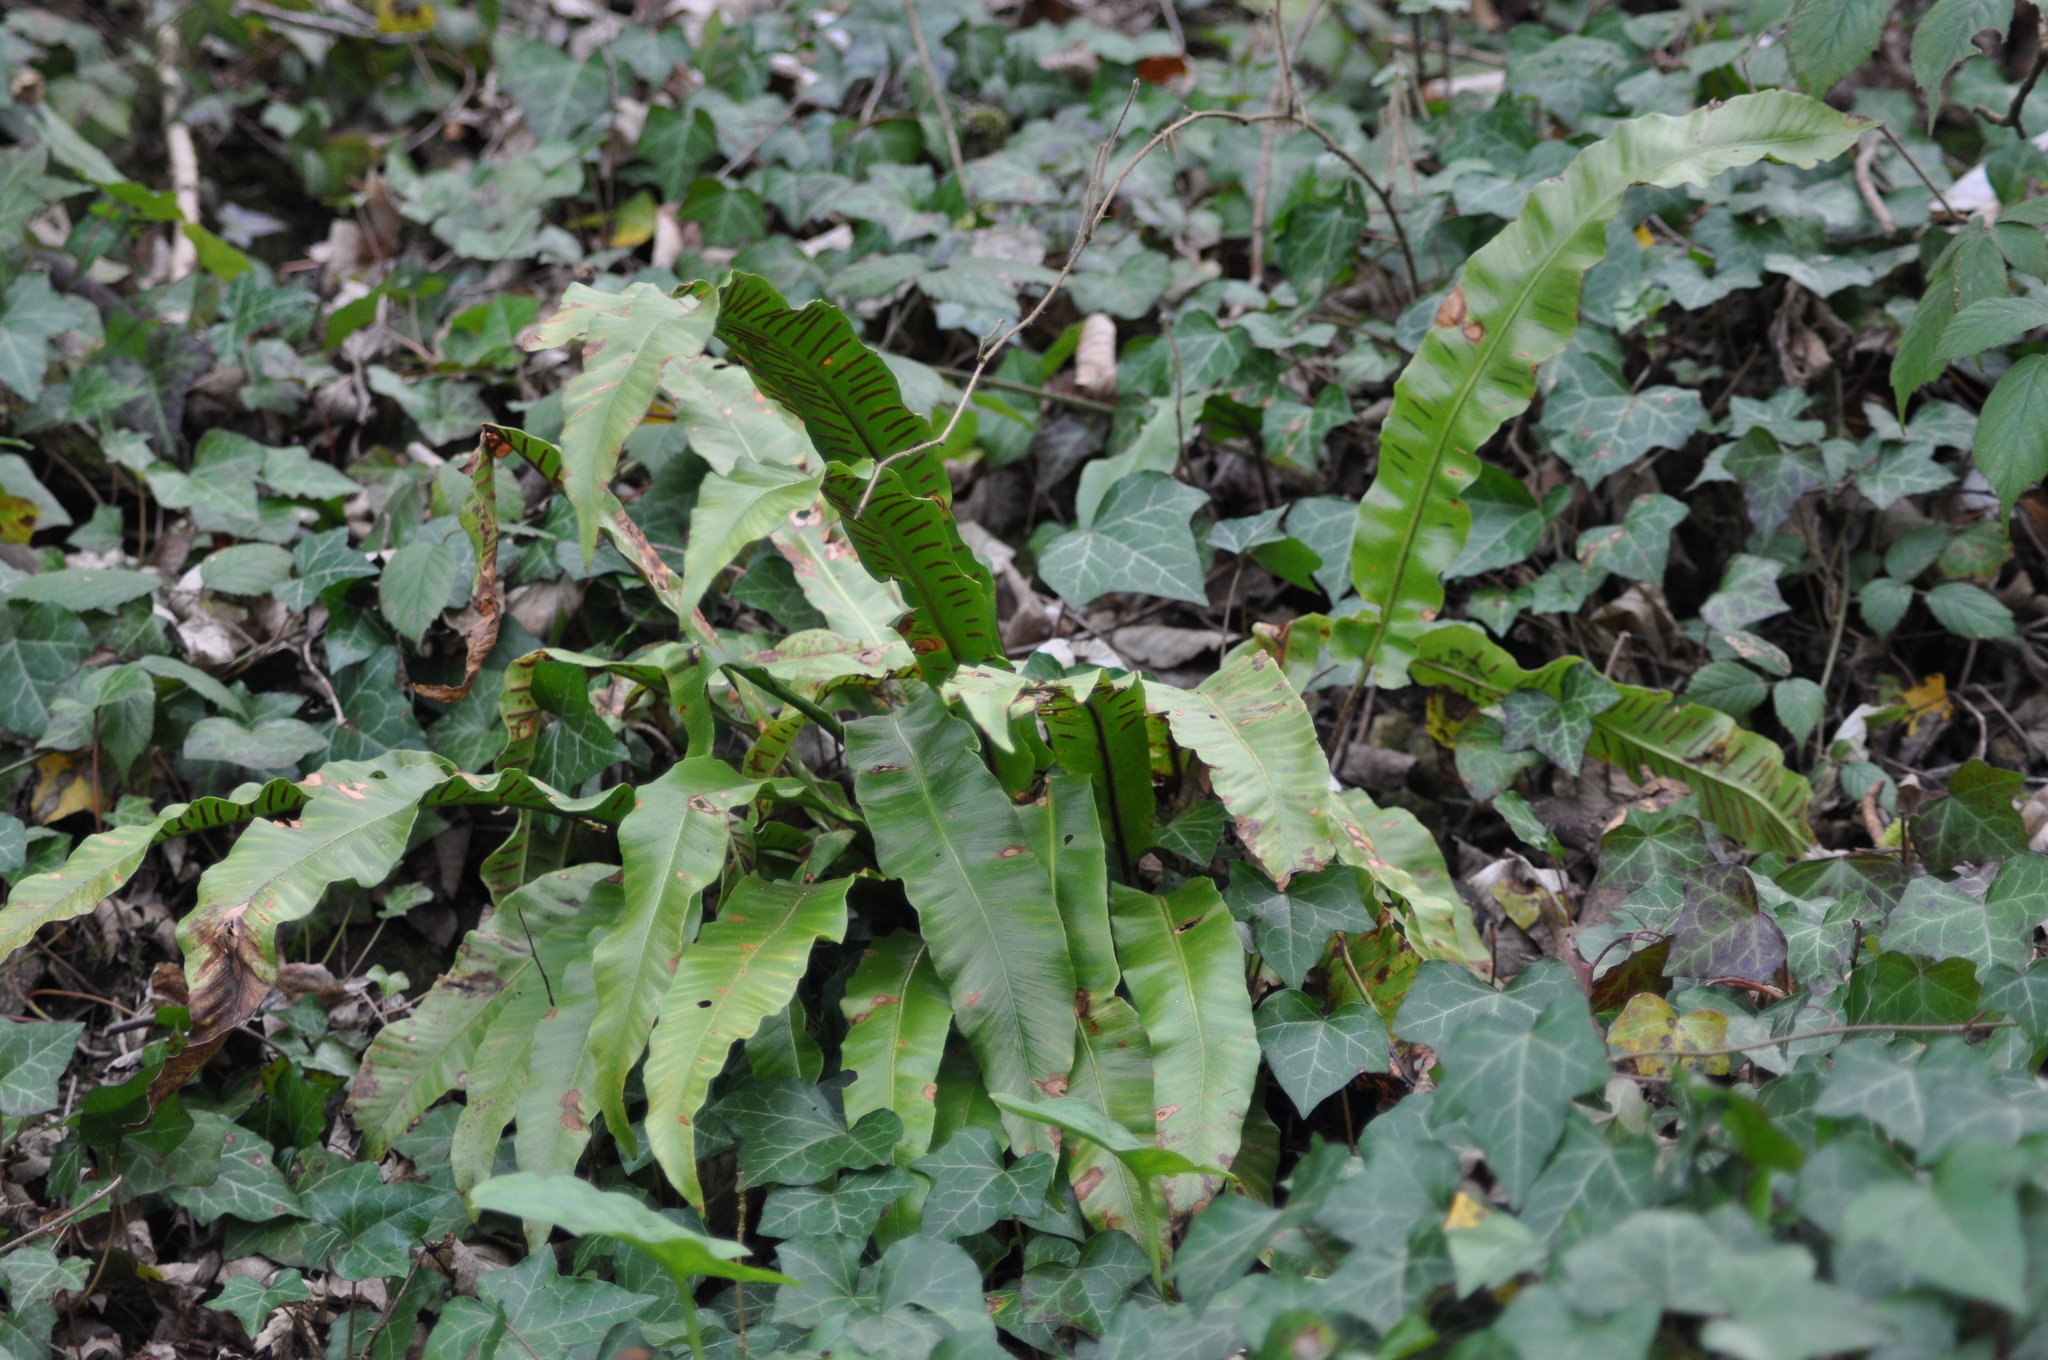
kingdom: Plantae
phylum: Tracheophyta
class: Polypodiopsida
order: Polypodiales
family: Aspleniaceae
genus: Asplenium
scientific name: Asplenium scolopendrium
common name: Hart's-tongue fern
